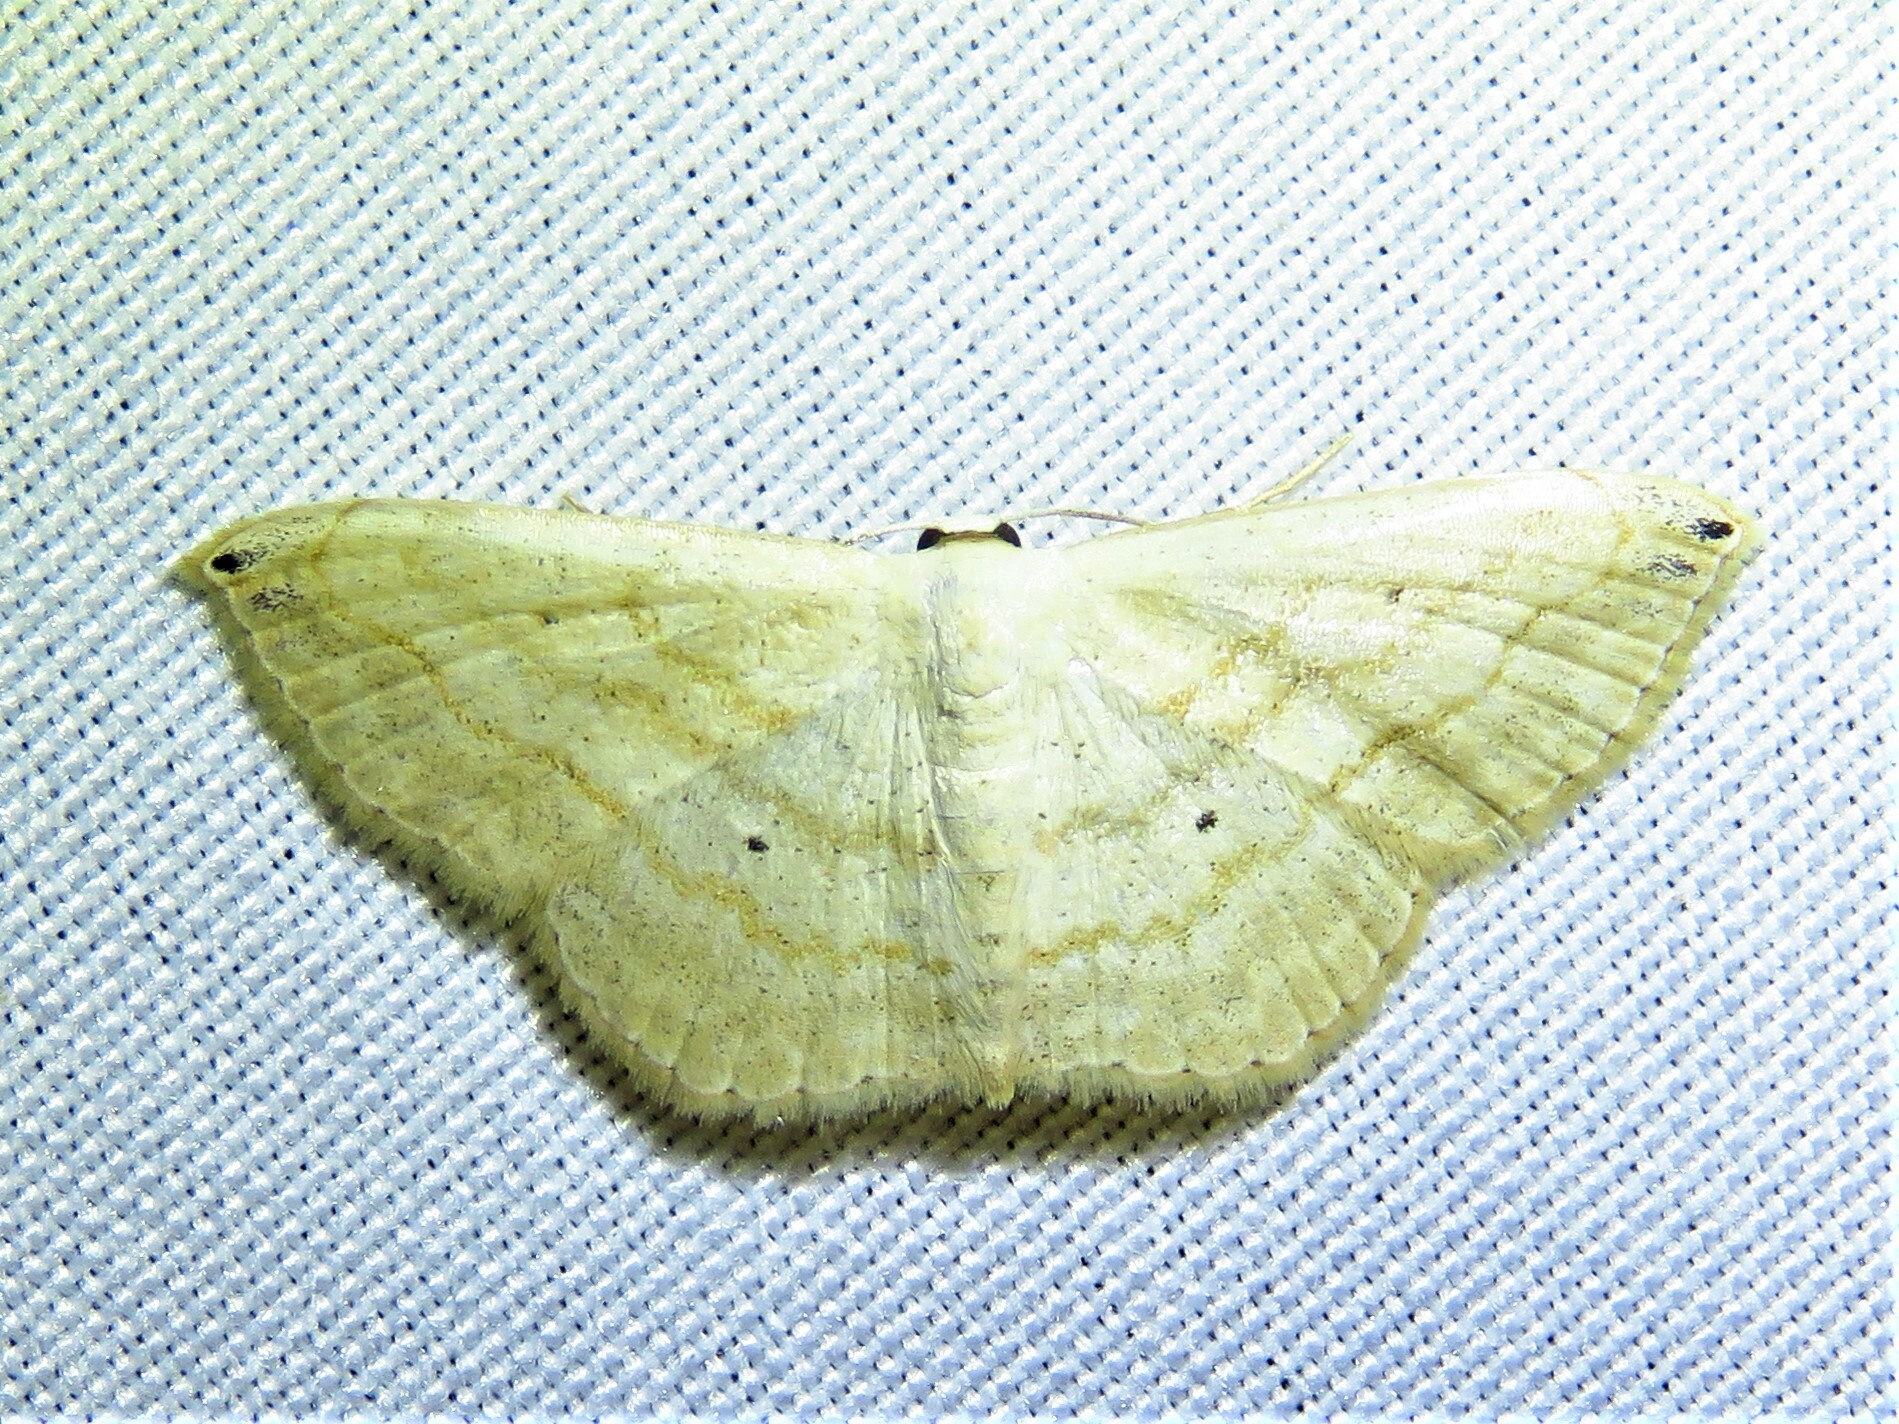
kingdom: Animalia
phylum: Arthropoda
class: Insecta
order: Lepidoptera
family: Geometridae
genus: Scopula
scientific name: Scopula umbilicata
